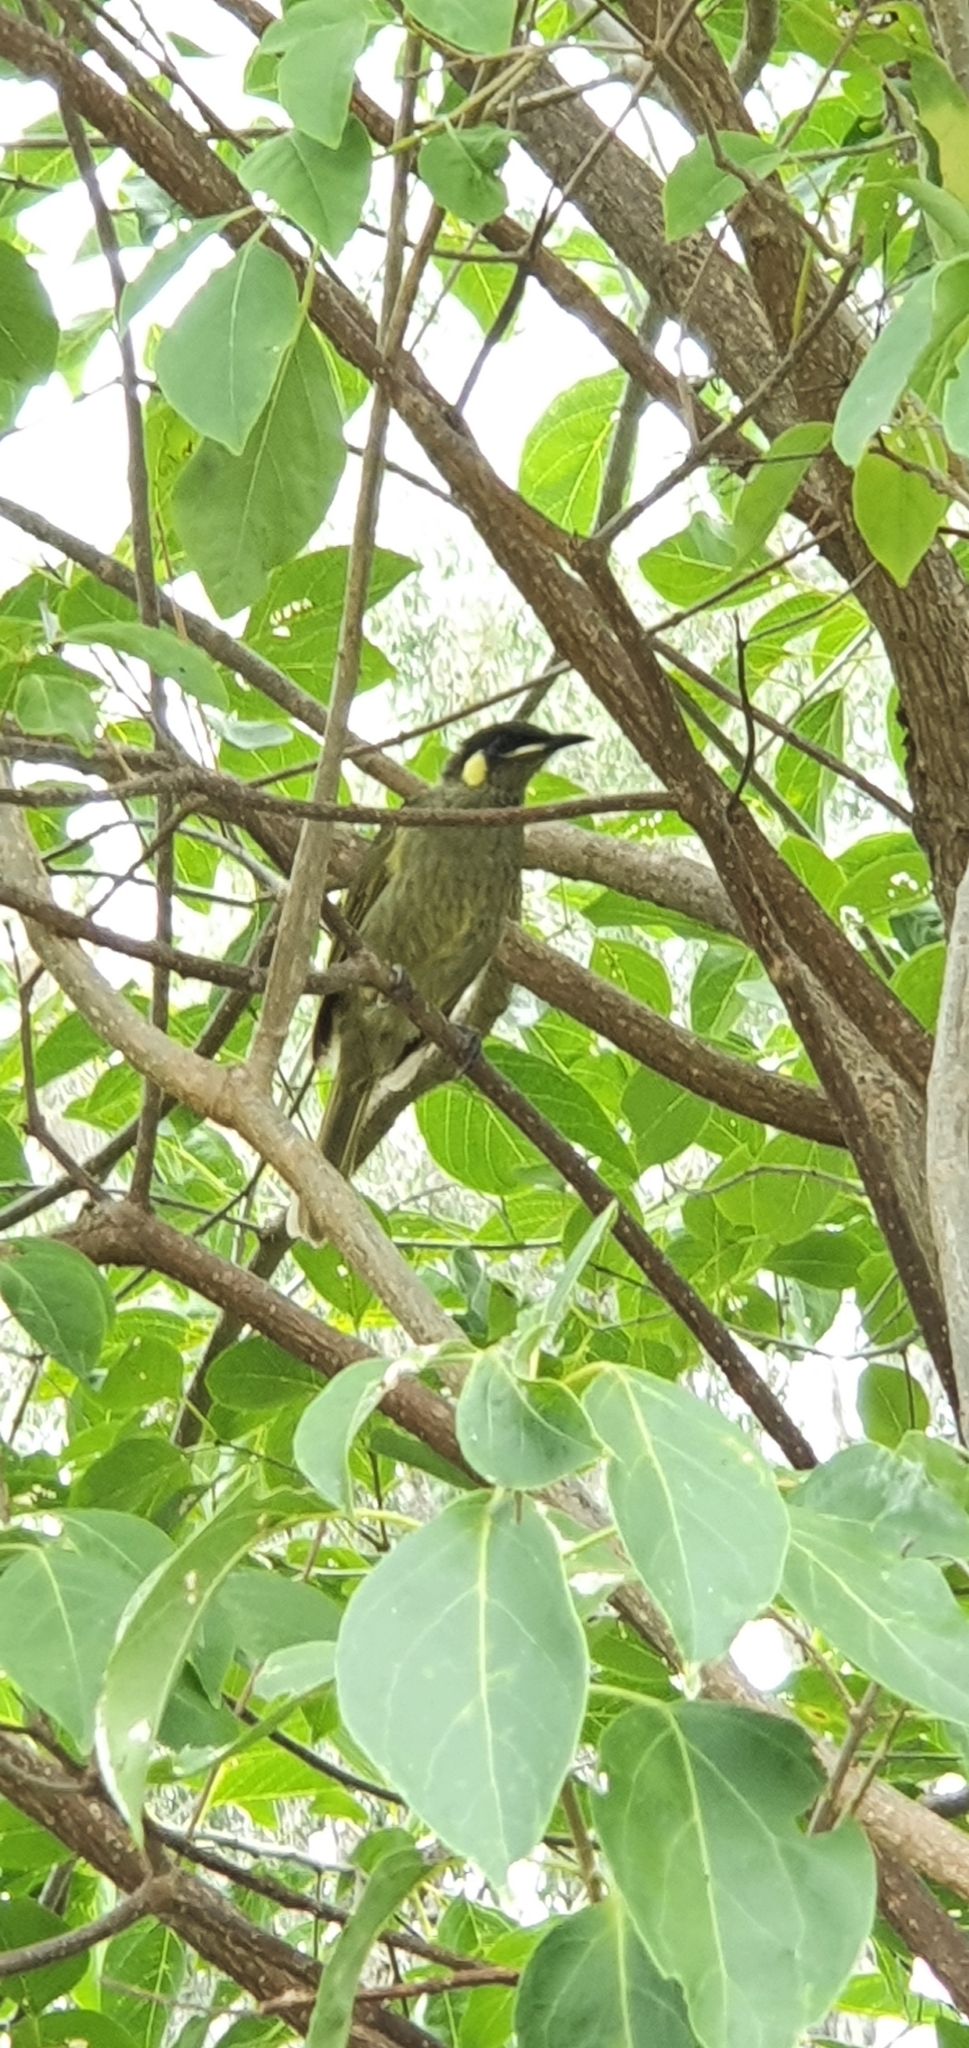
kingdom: Animalia
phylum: Chordata
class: Aves
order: Passeriformes
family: Meliphagidae
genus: Meliphaga
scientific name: Meliphaga lewinii
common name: Lewin's honeyeater
